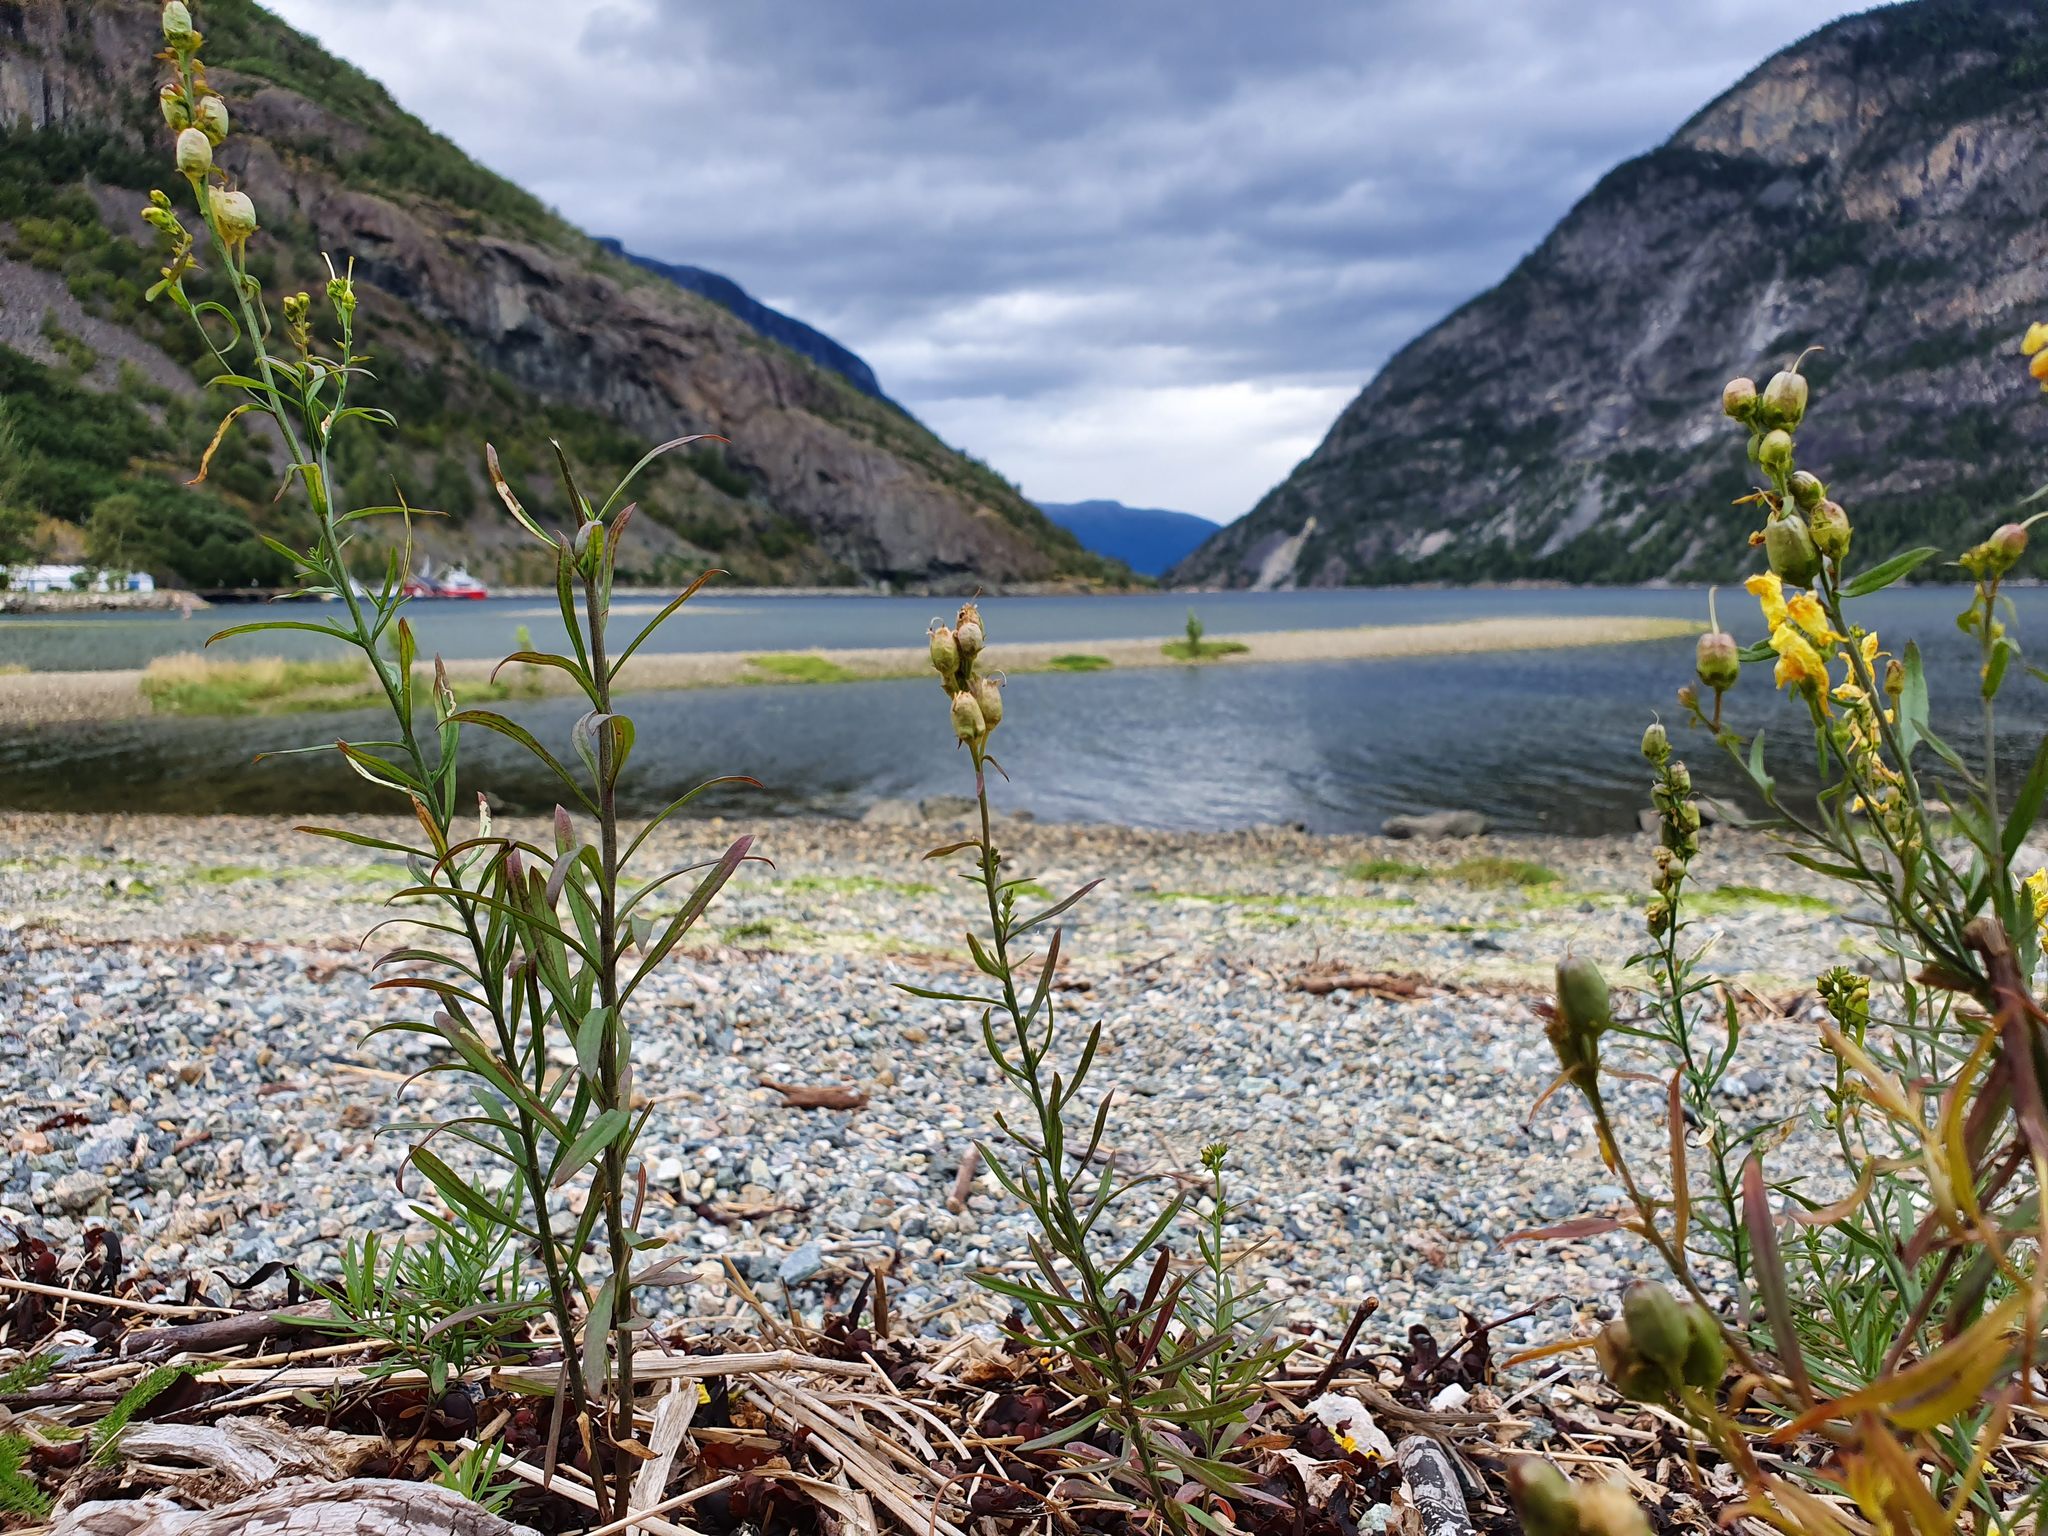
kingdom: Plantae
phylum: Tracheophyta
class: Magnoliopsida
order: Lamiales
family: Plantaginaceae
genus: Linaria
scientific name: Linaria vulgaris
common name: Butter and eggs
